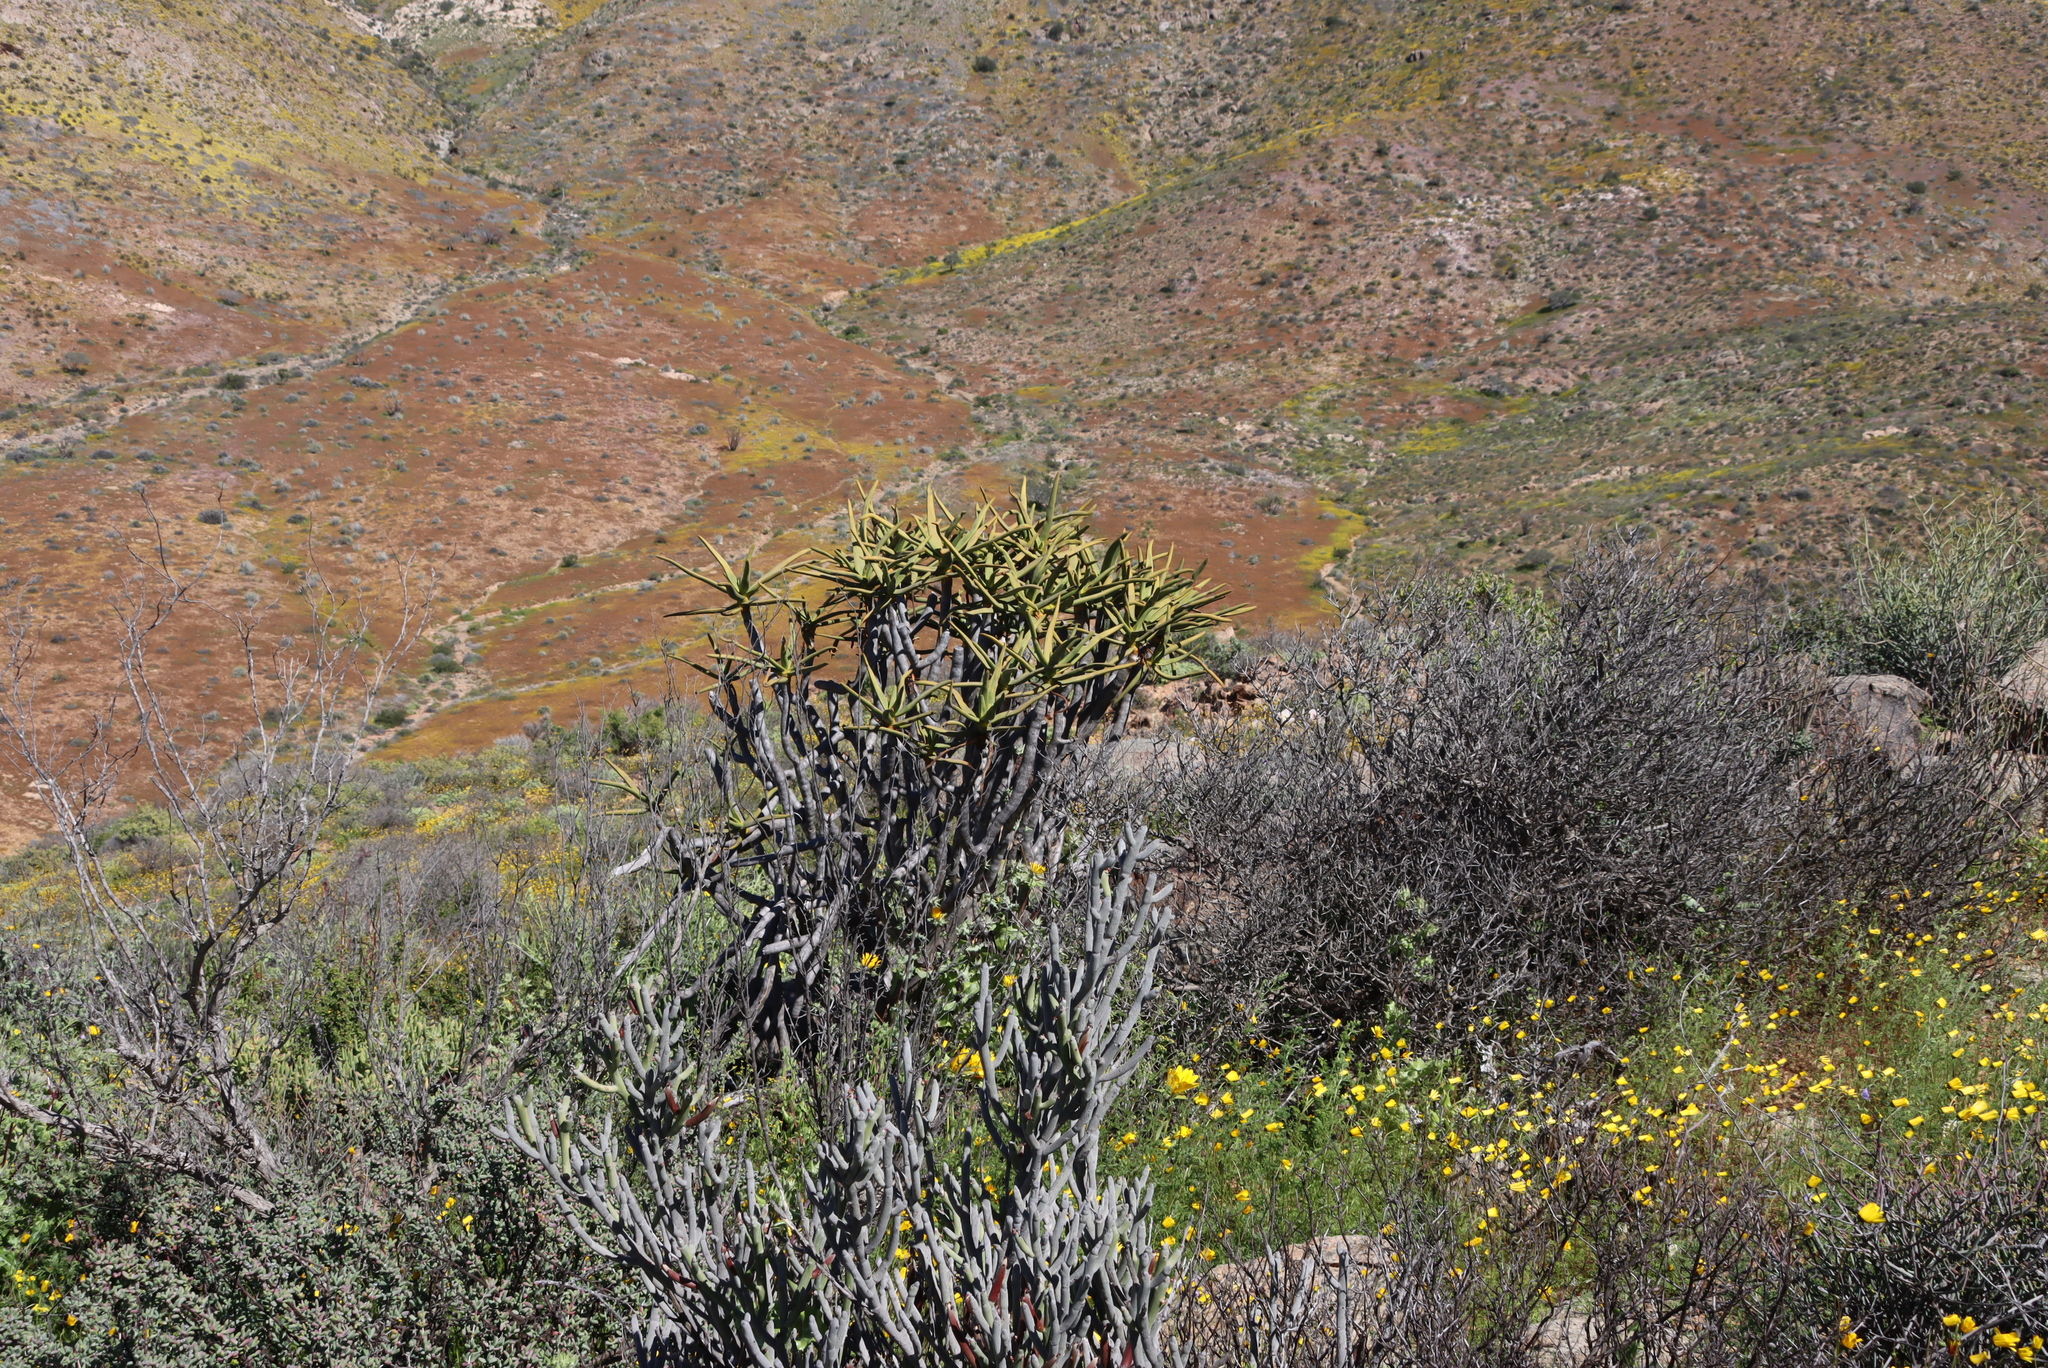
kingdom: Plantae
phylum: Tracheophyta
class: Liliopsida
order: Asparagales
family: Asphodelaceae
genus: Aloidendron
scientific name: Aloidendron ramosissimum
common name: Bush quiver tree
